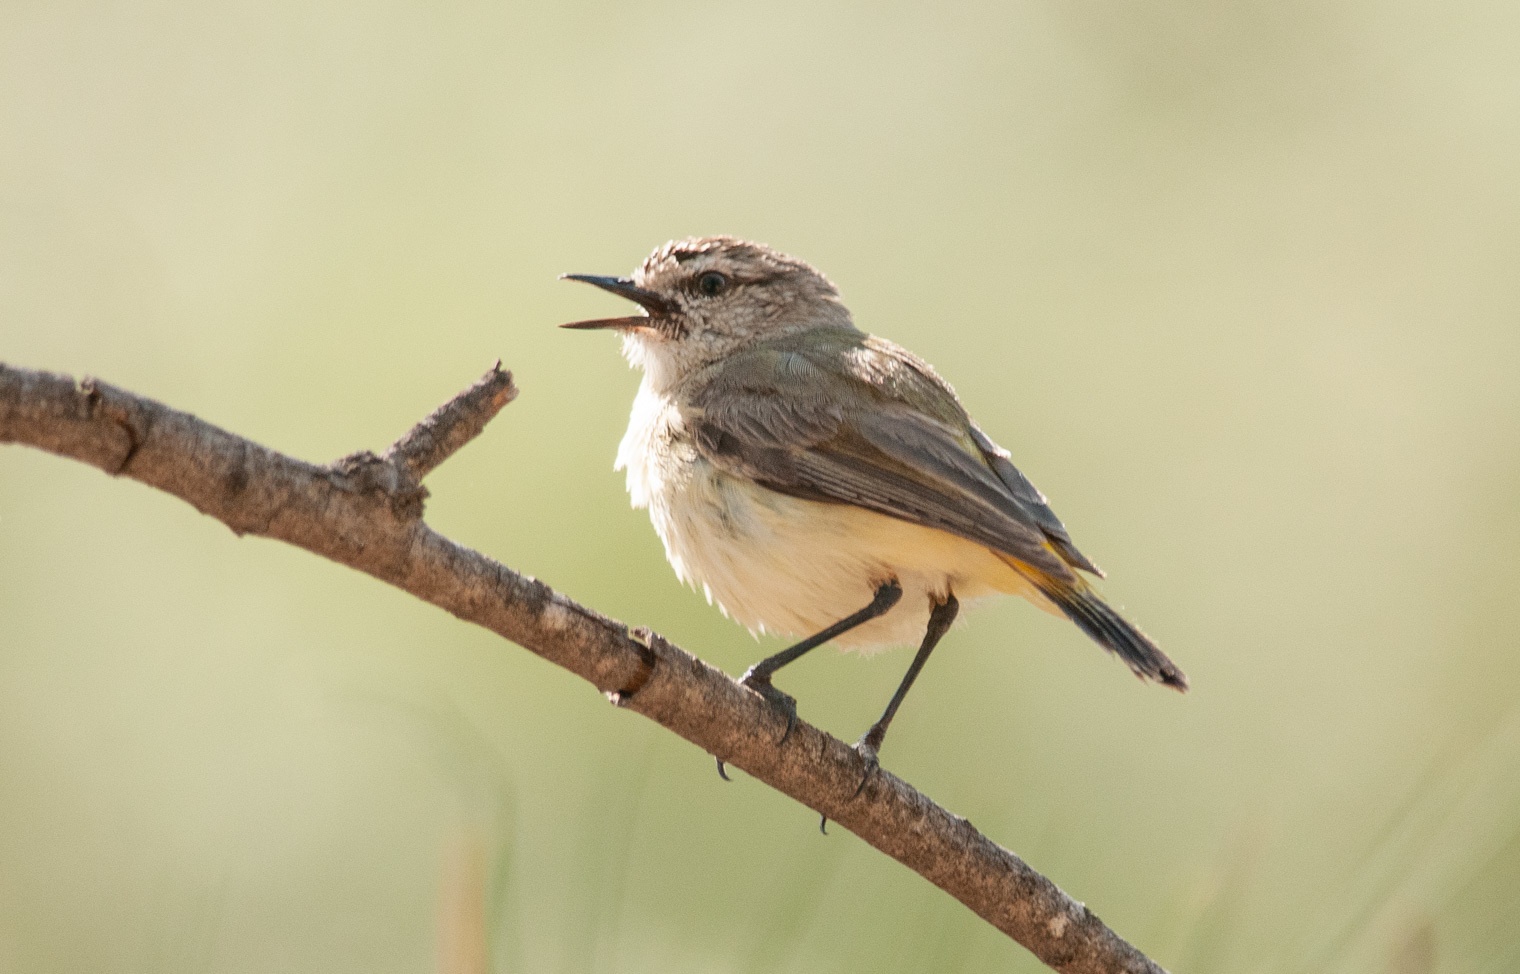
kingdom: Animalia
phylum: Chordata
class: Aves
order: Passeriformes
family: Acanthizidae
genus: Acanthiza
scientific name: Acanthiza chrysorrhoa
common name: Yellow-rumped thornbill
